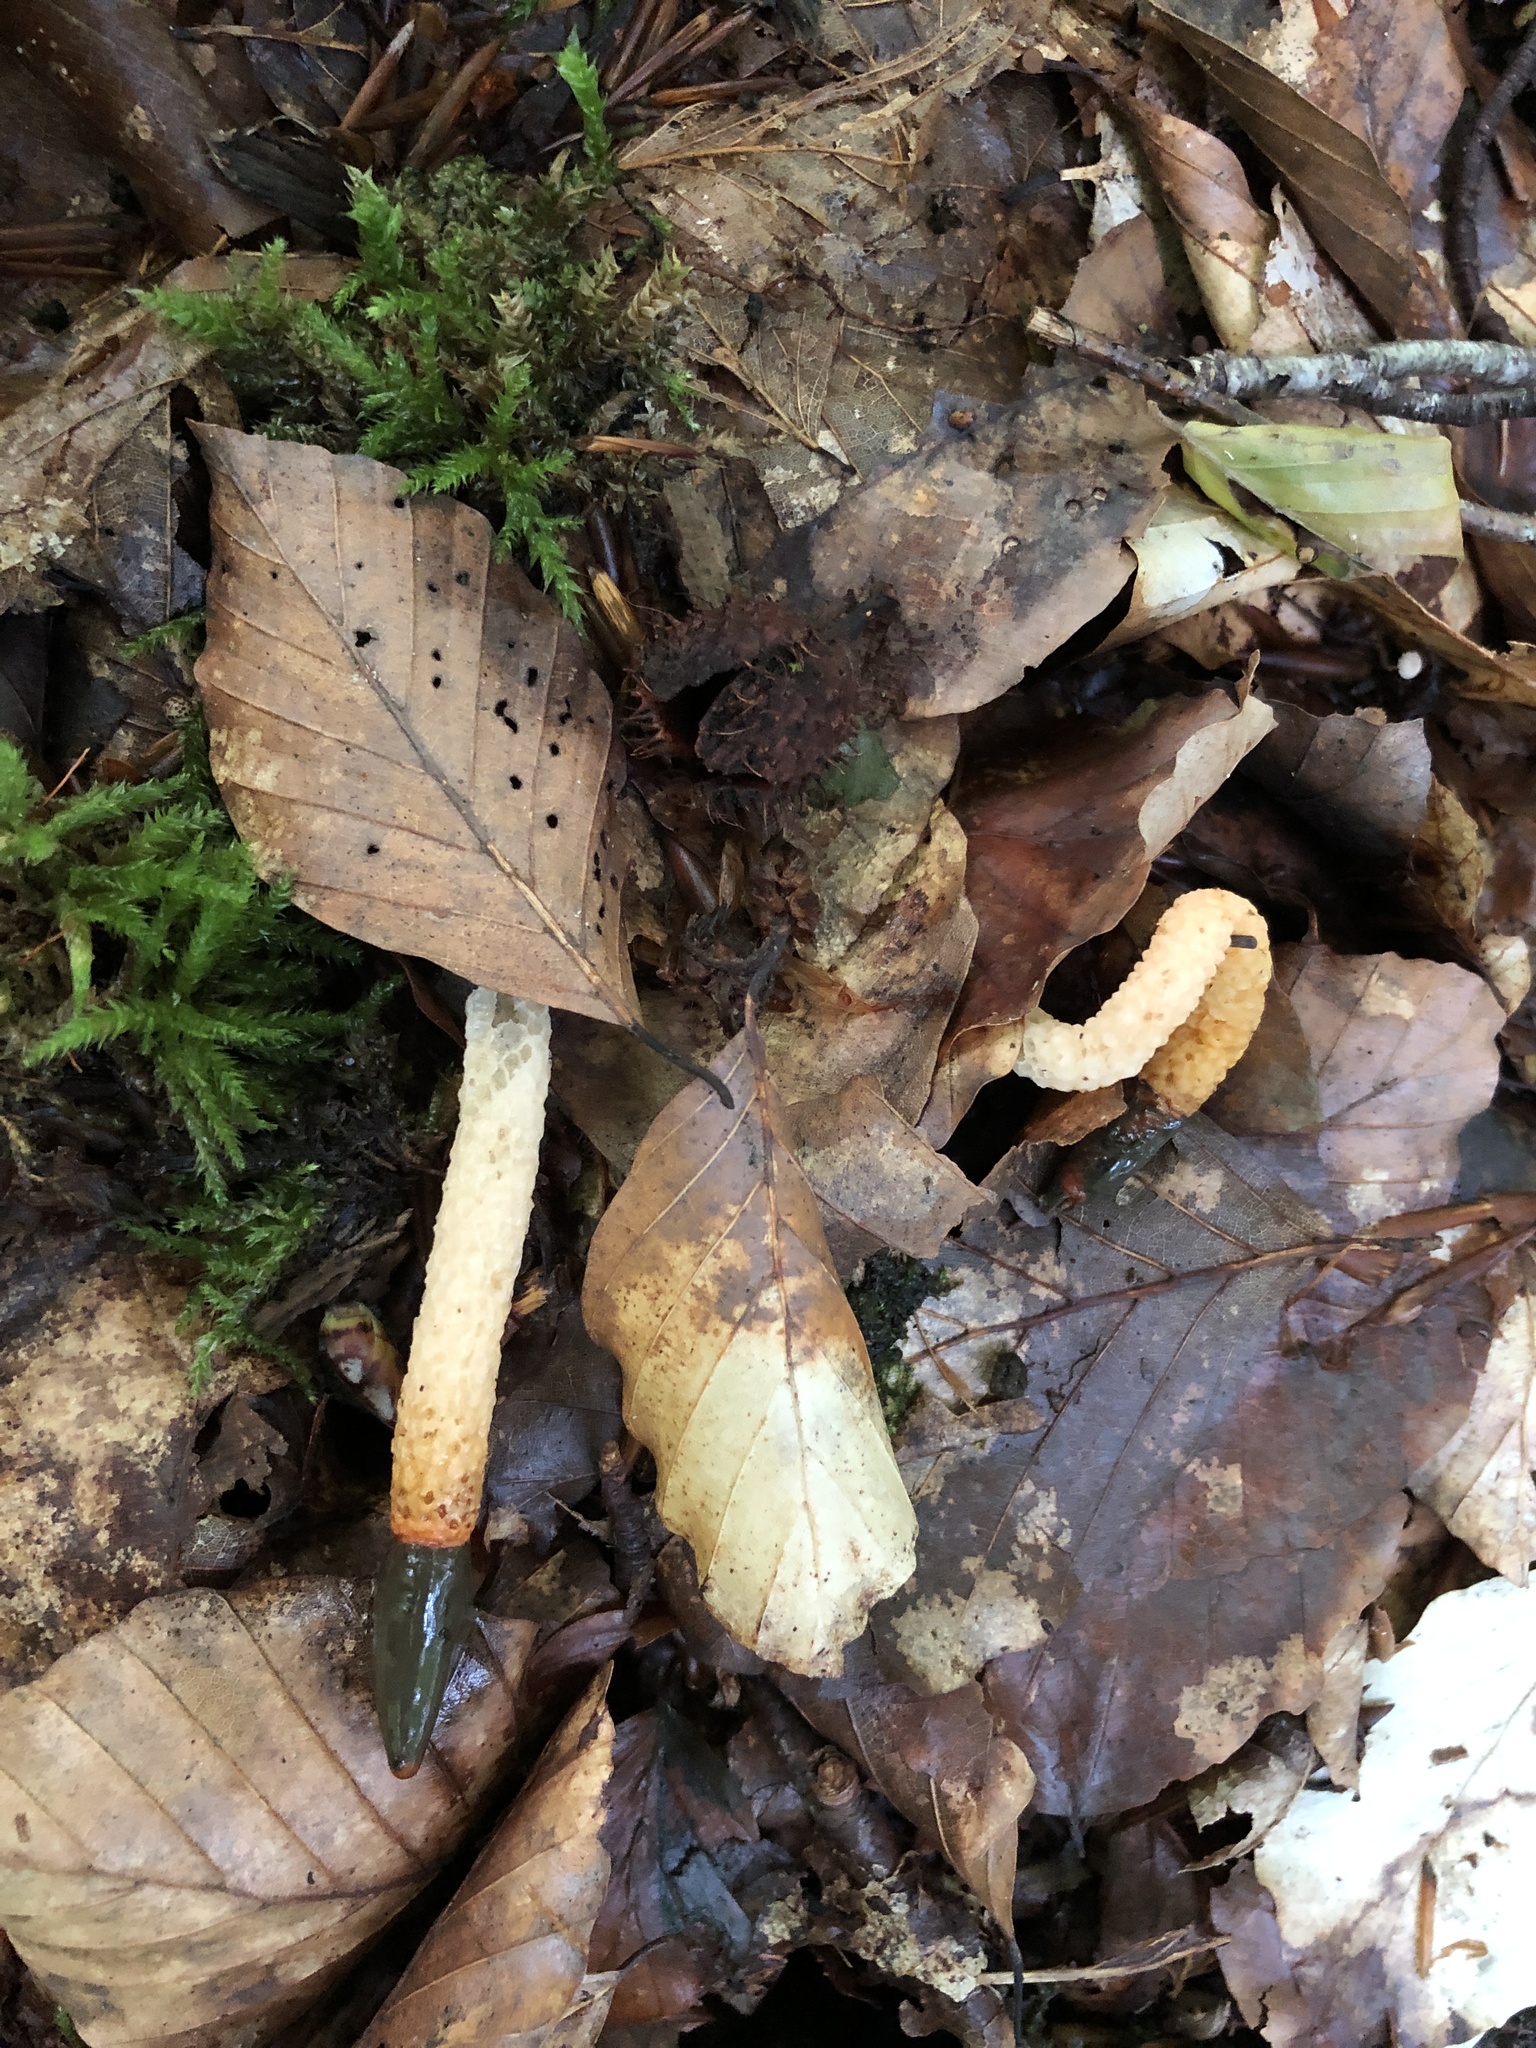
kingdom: Fungi
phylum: Basidiomycota
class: Agaricomycetes
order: Phallales
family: Phallaceae
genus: Mutinus
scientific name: Mutinus caninus
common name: Dog stinkhorn
